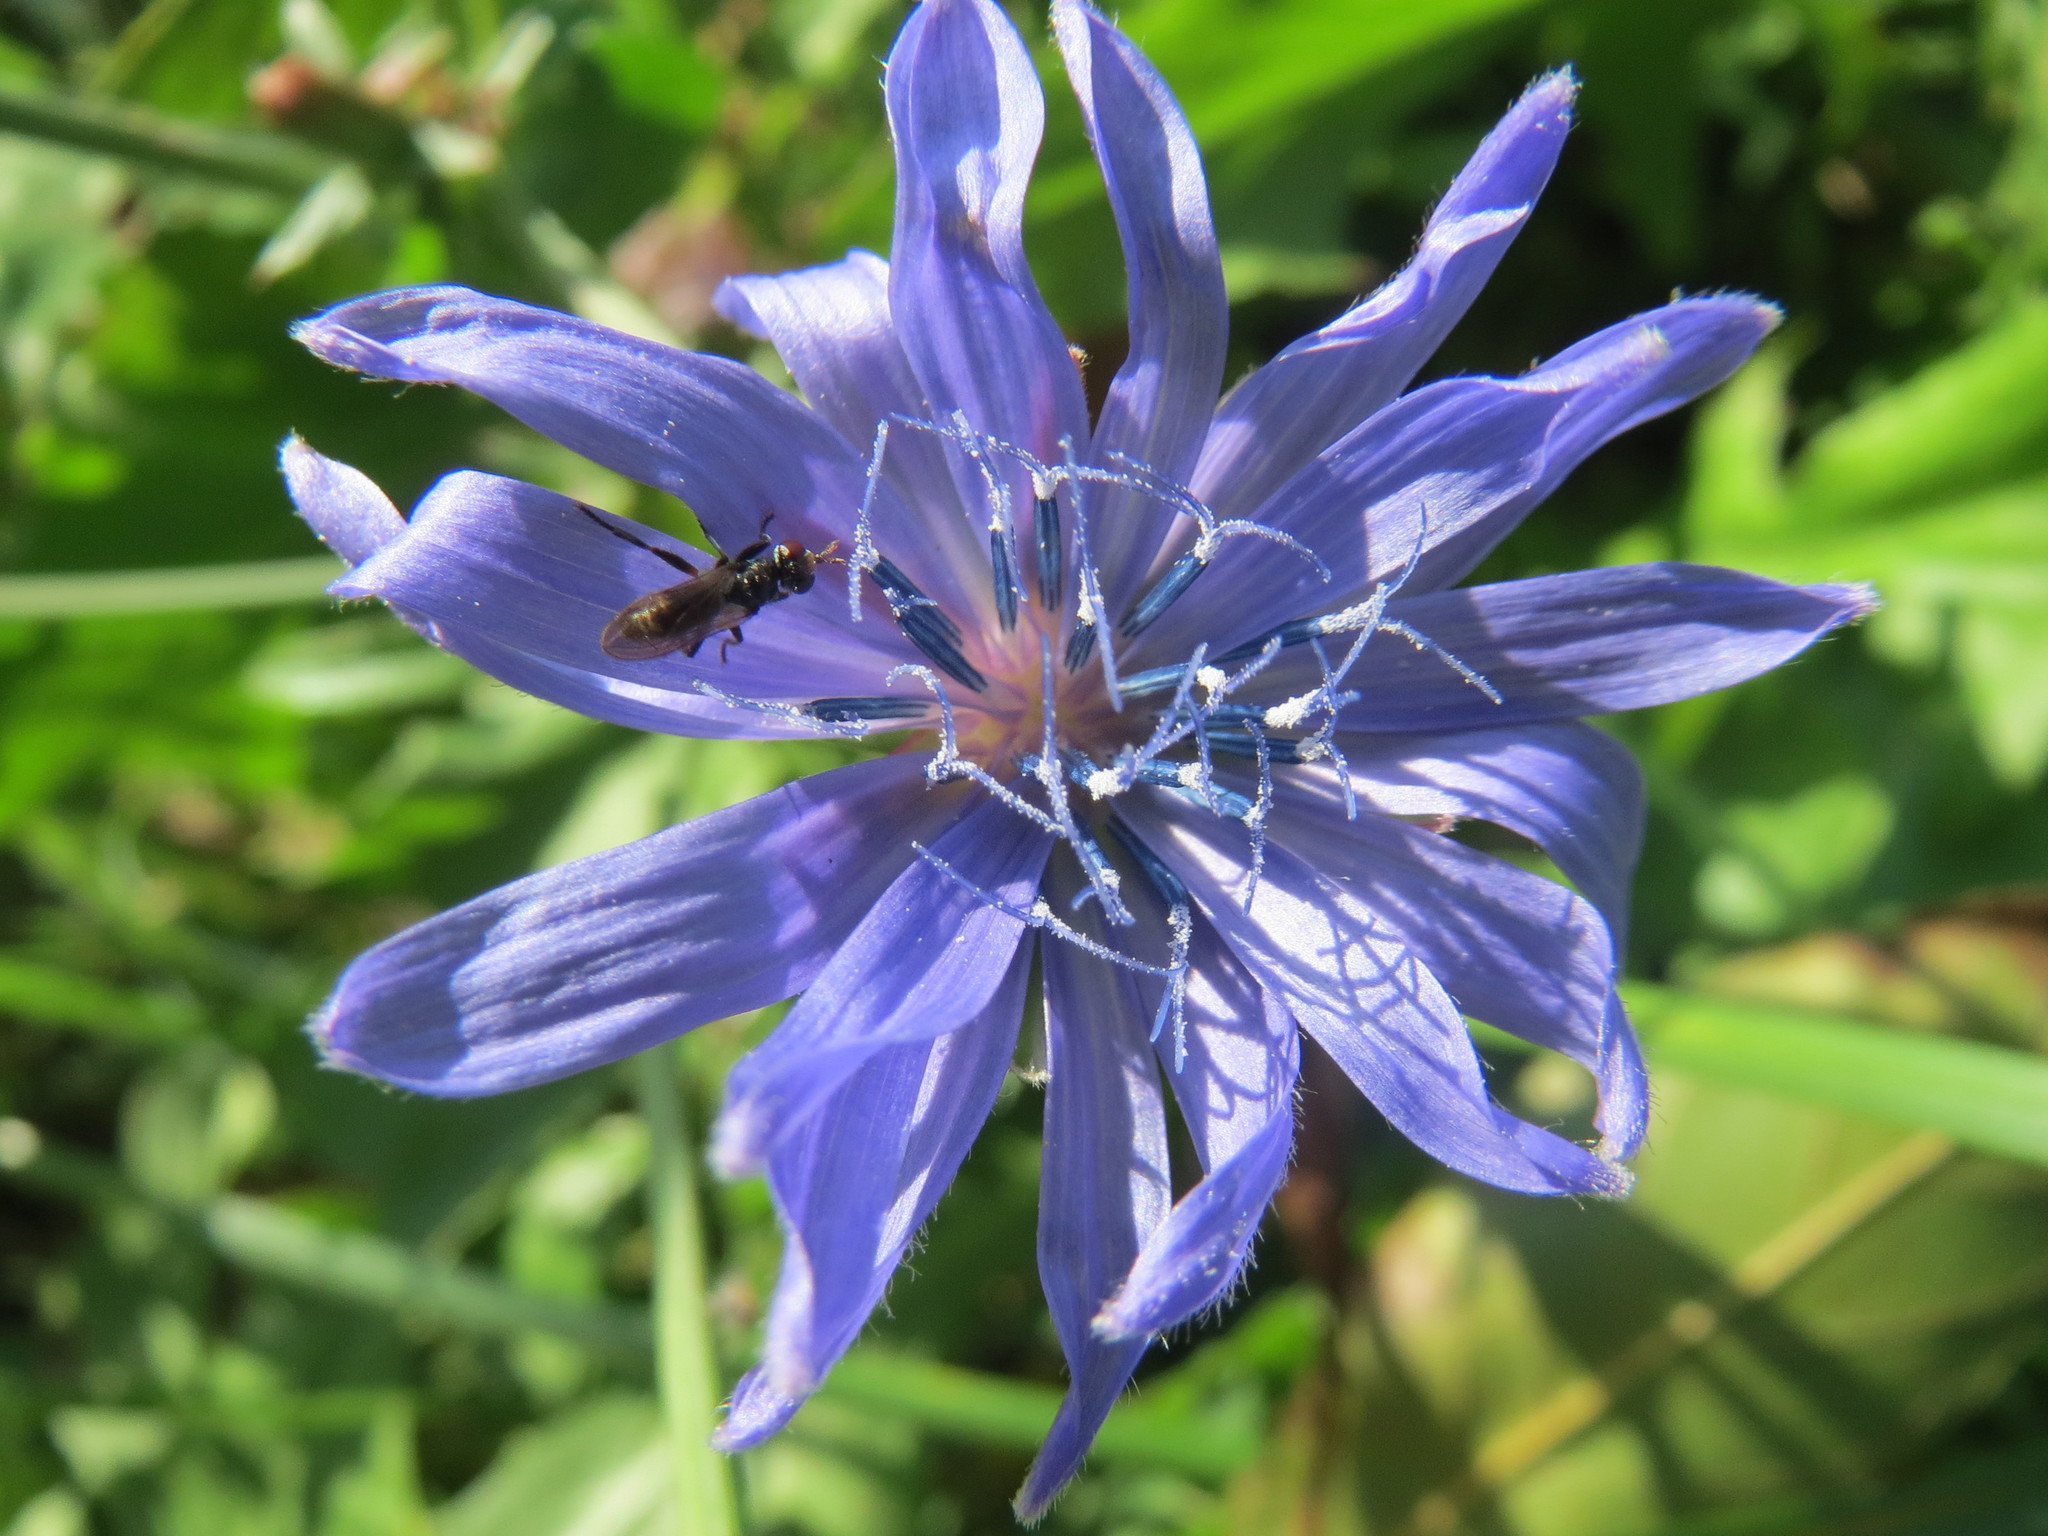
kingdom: Plantae
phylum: Tracheophyta
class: Magnoliopsida
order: Asterales
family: Asteraceae
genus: Cichorium
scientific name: Cichorium intybus
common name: Chicory
